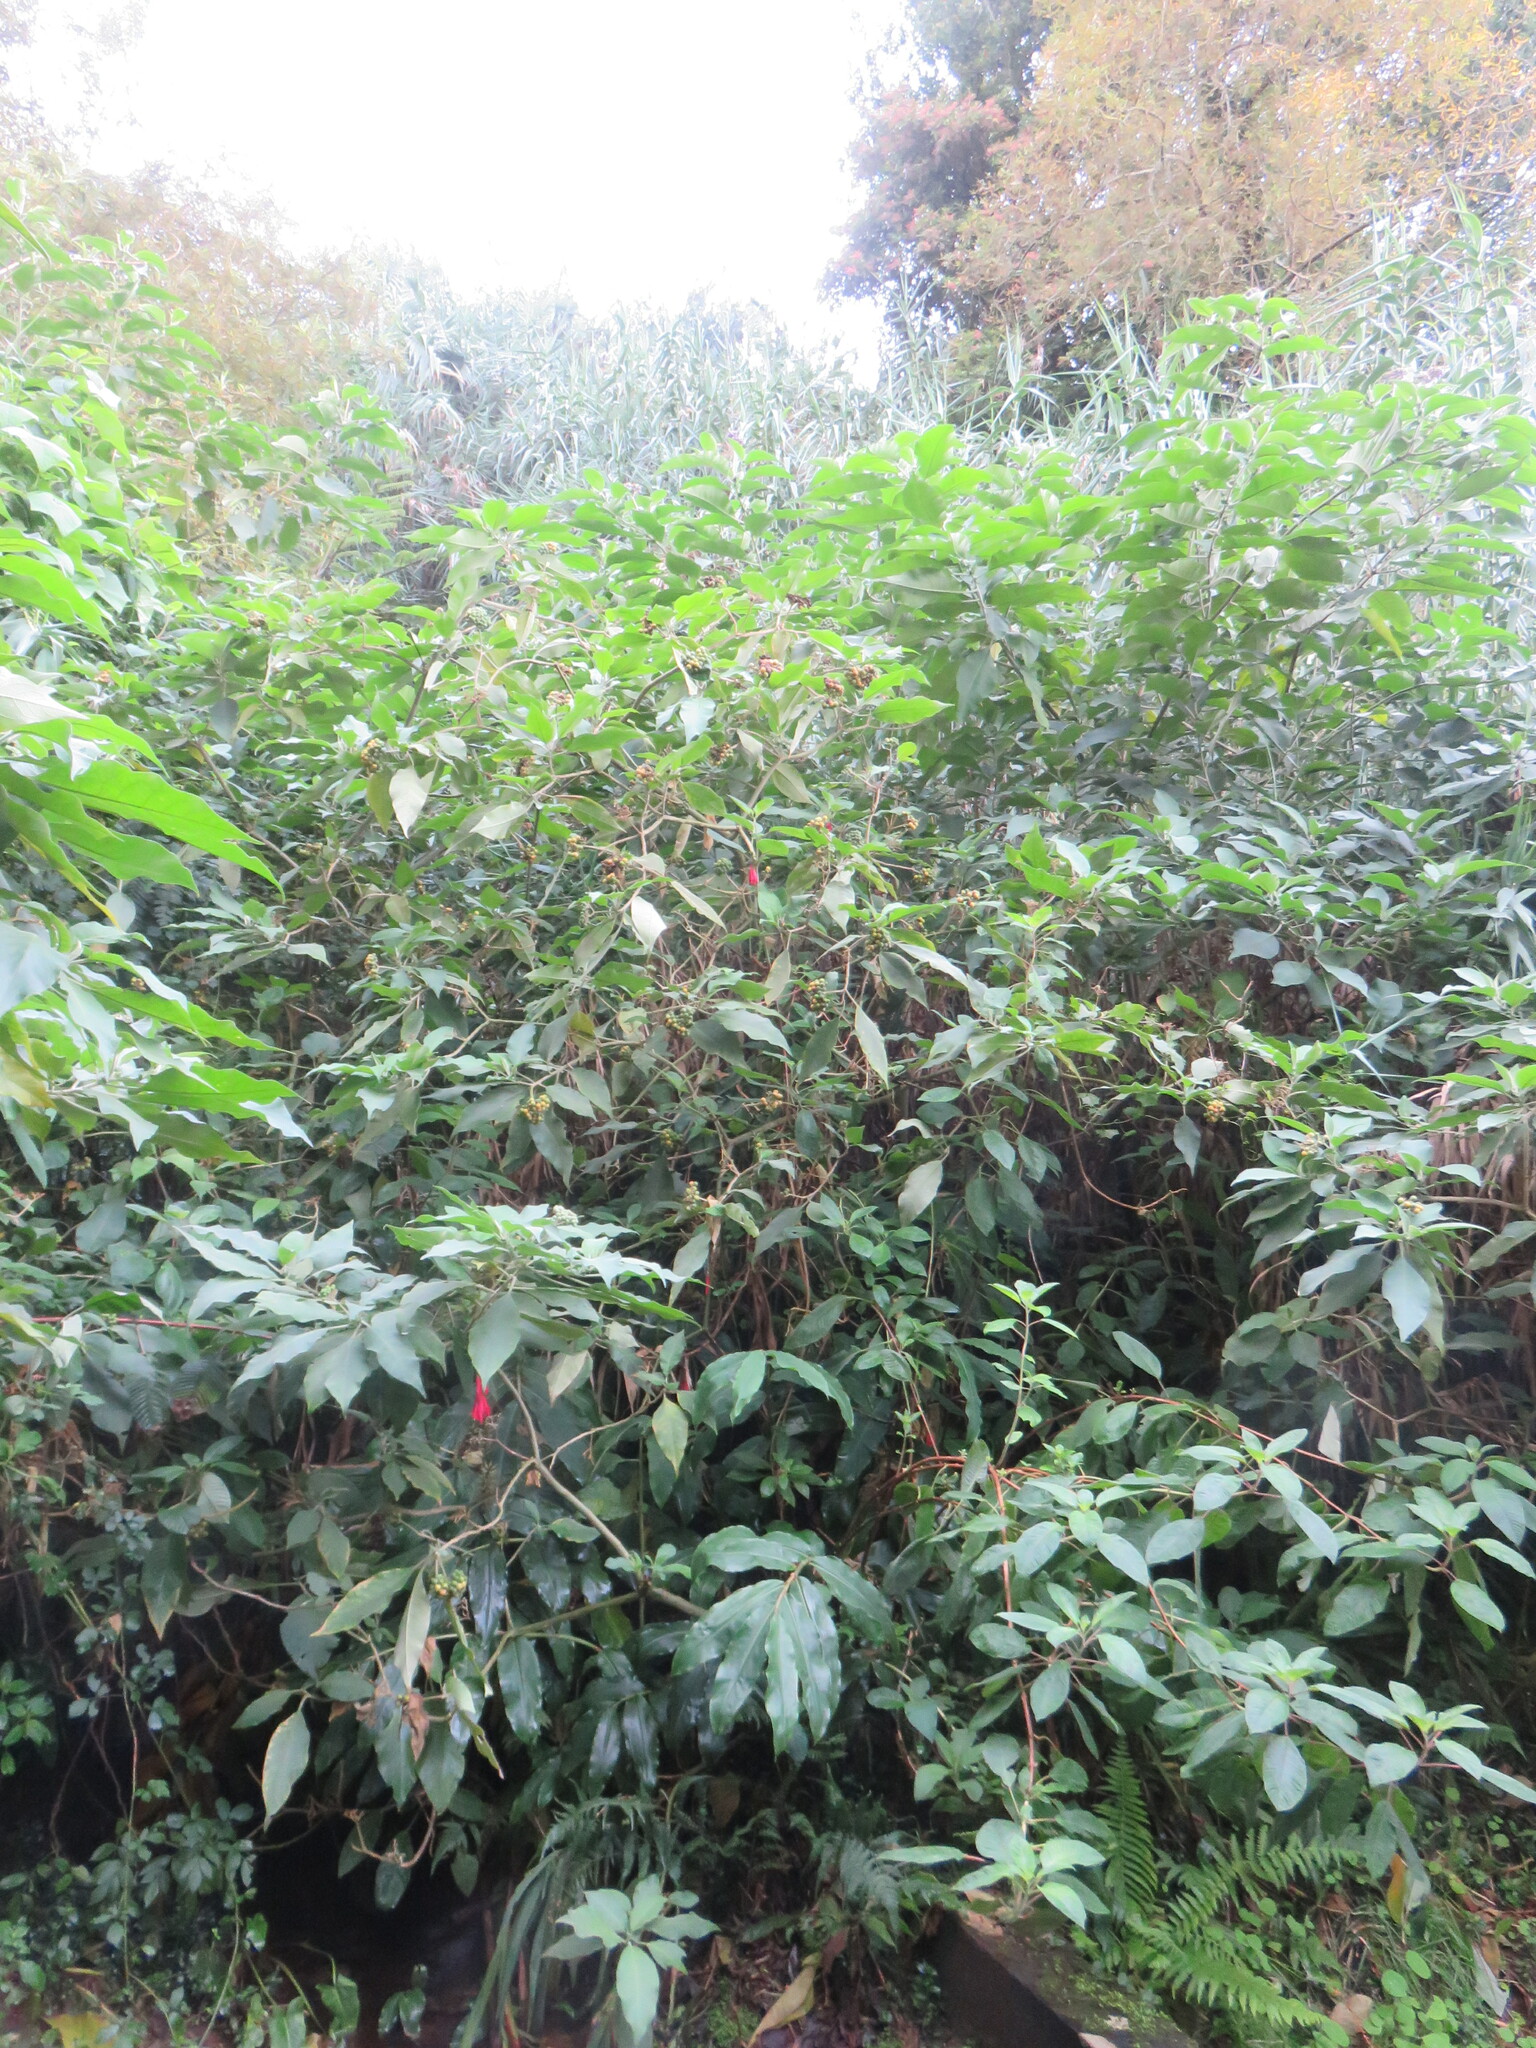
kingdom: Plantae
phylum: Tracheophyta
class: Magnoliopsida
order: Myrtales
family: Onagraceae
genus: Fuchsia
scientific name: Fuchsia boliviana
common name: Bolivian fuchsia
